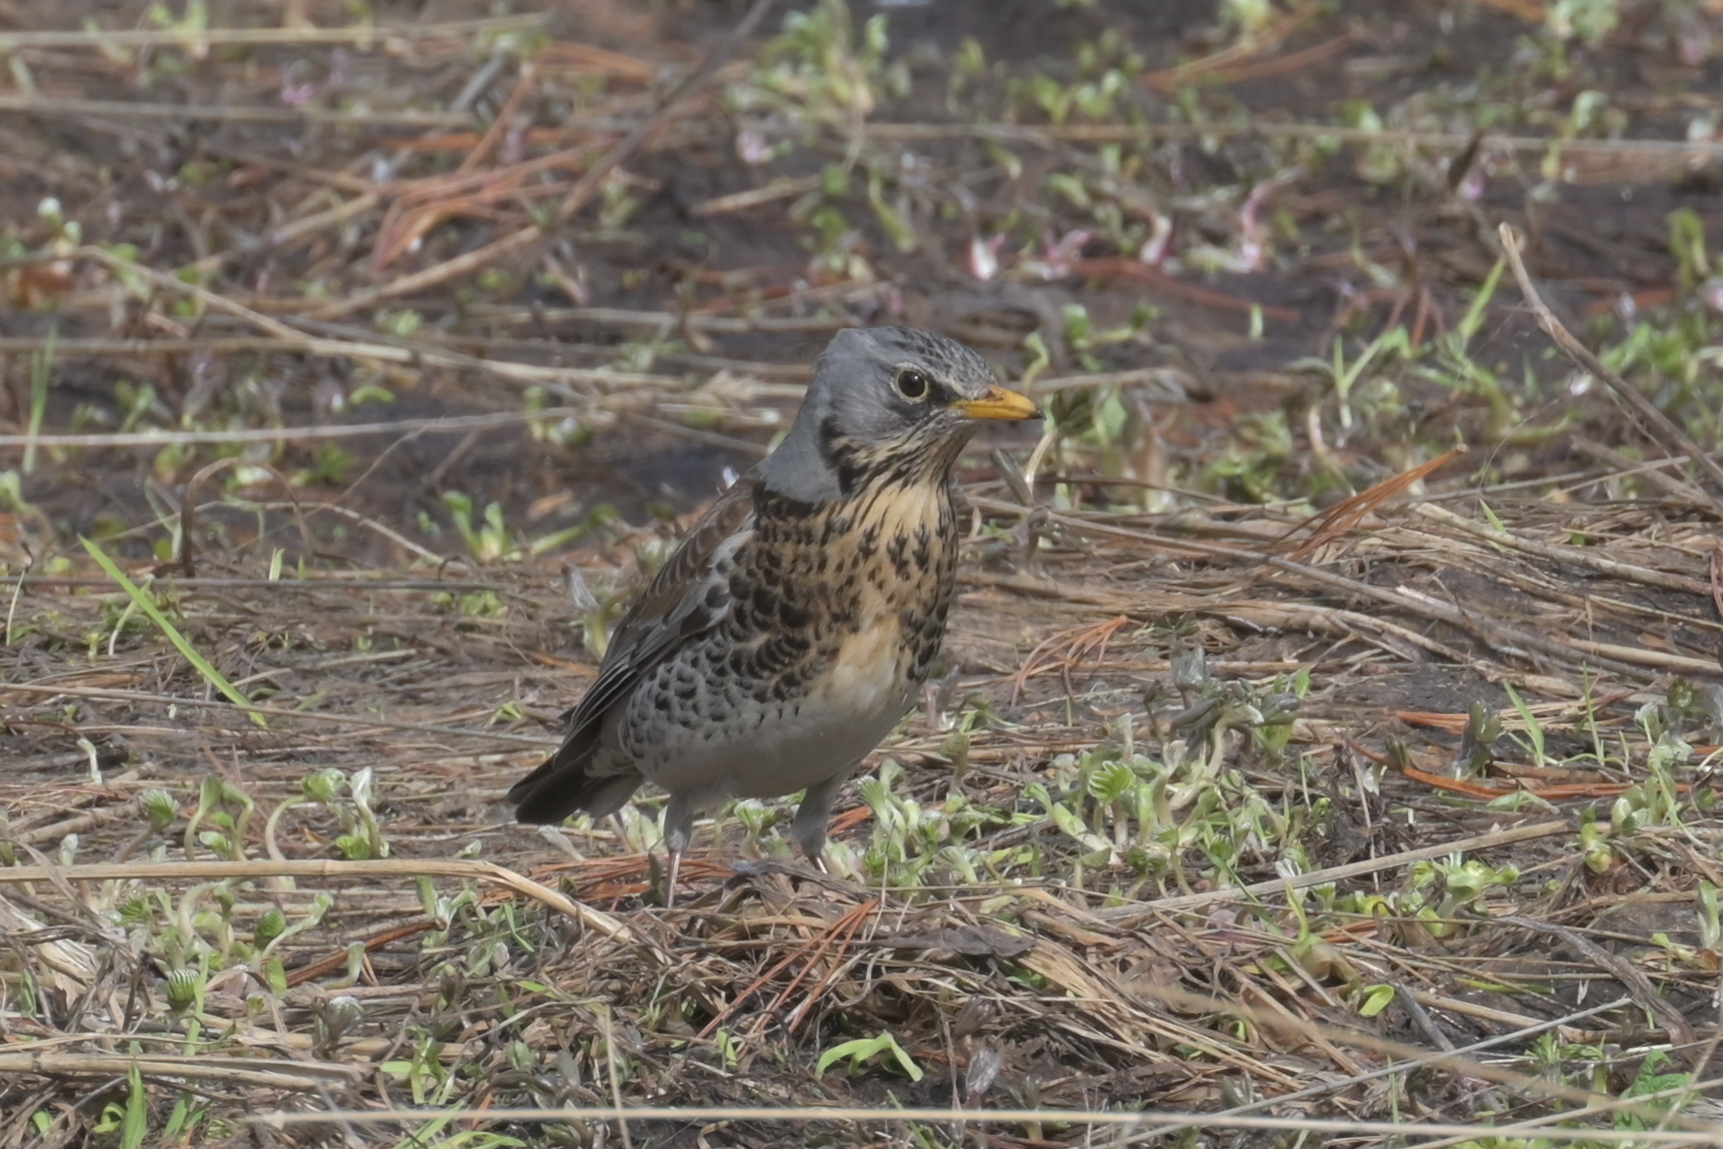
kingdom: Animalia
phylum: Chordata
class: Aves
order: Passeriformes
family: Turdidae
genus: Turdus
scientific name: Turdus pilaris
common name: Fieldfare
